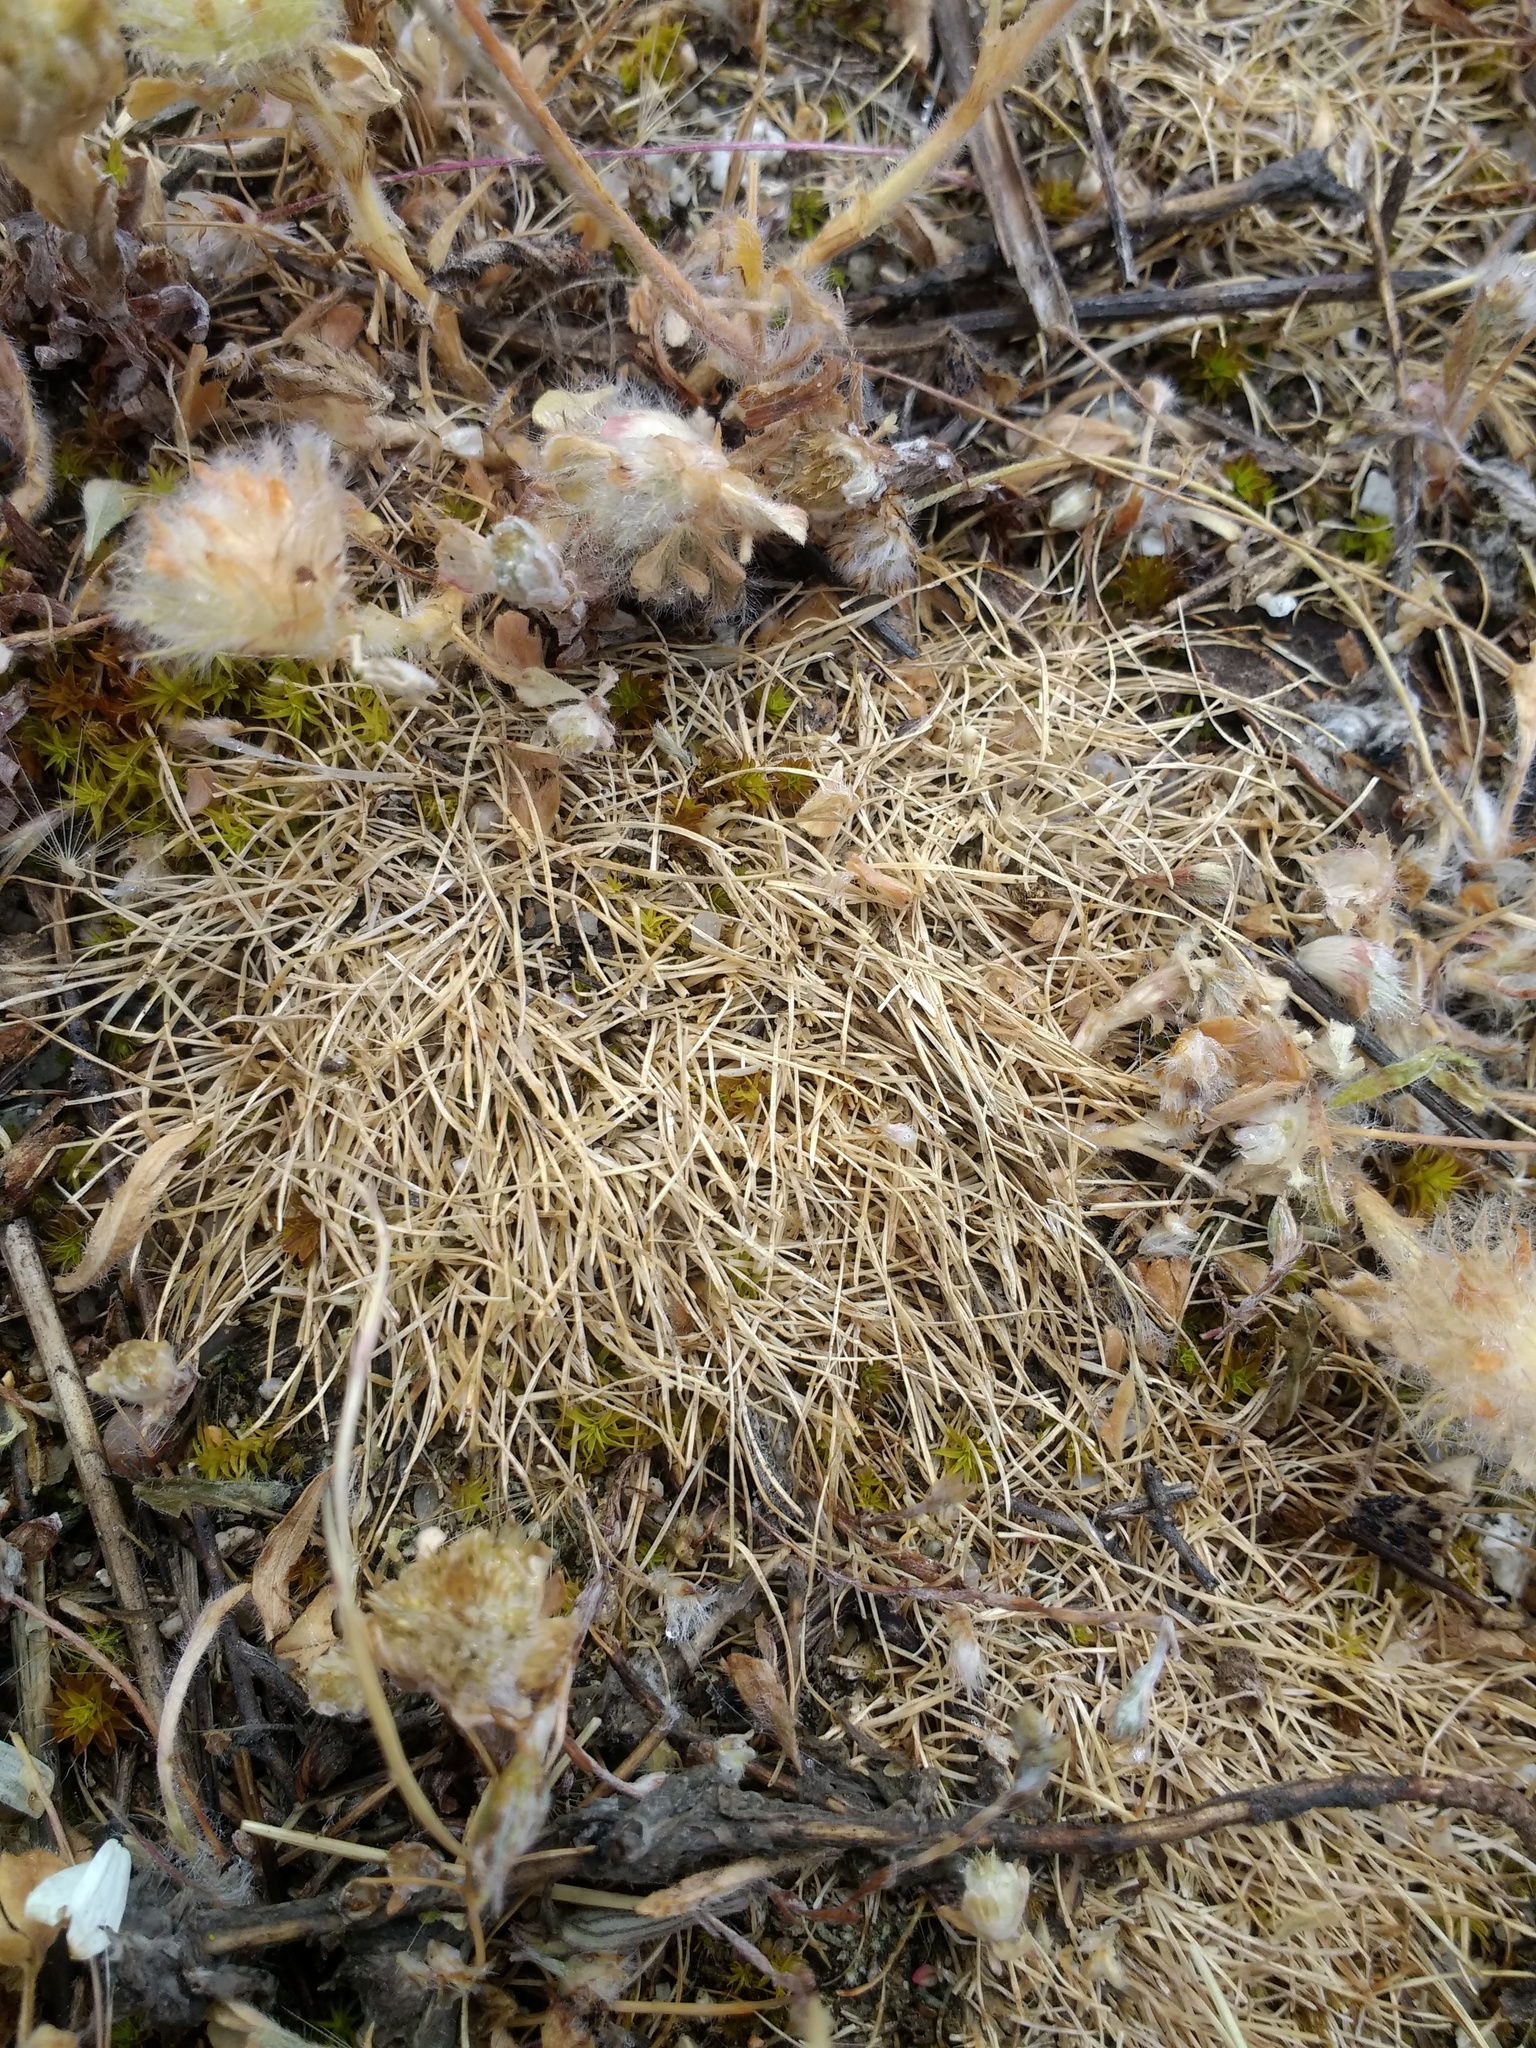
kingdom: Plantae
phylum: Tracheophyta
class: Liliopsida
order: Poales
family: Poaceae
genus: Poa
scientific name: Poa bulbosa
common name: Bulbous bluegrass
